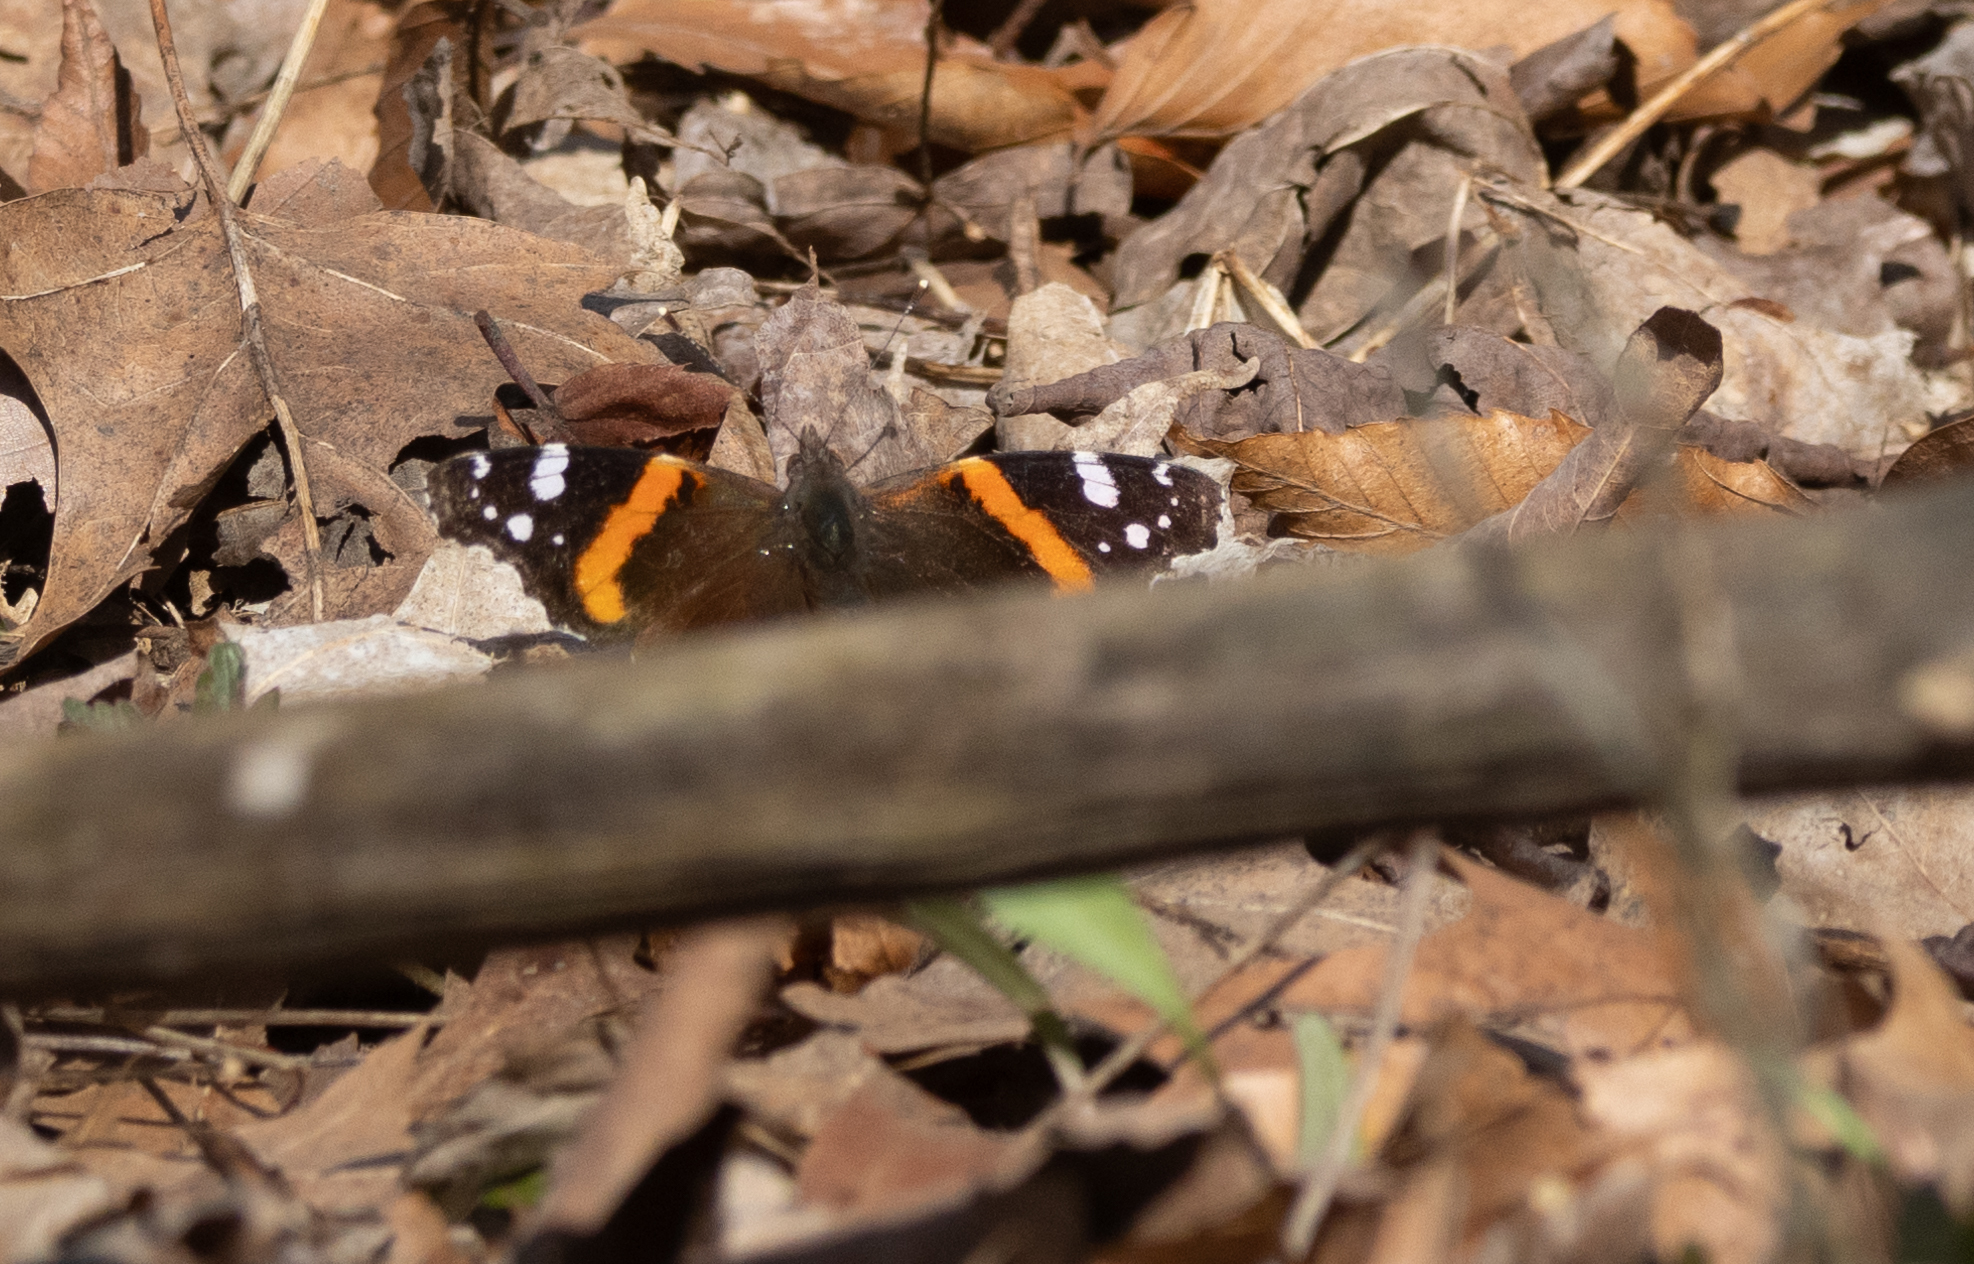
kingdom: Animalia
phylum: Arthropoda
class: Insecta
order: Lepidoptera
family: Nymphalidae
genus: Vanessa
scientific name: Vanessa atalanta
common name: Red admiral
